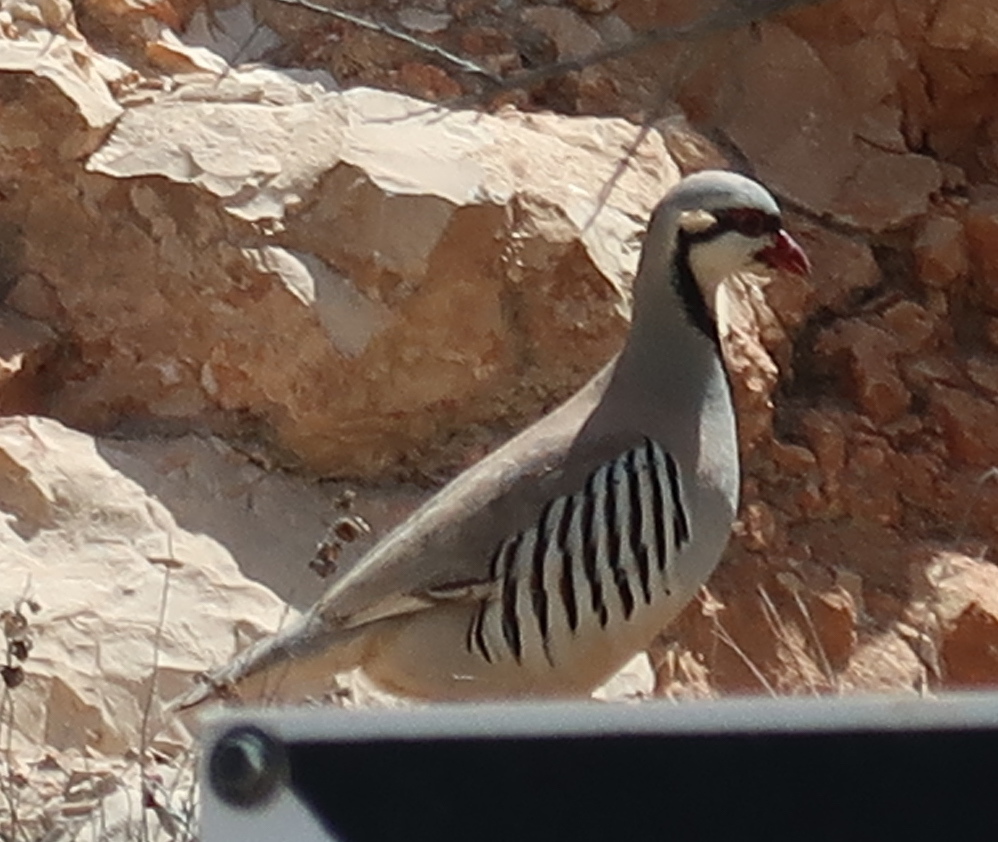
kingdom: Animalia
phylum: Chordata
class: Aves
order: Galliformes
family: Phasianidae
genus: Alectoris
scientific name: Alectoris chukar
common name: Chukar
